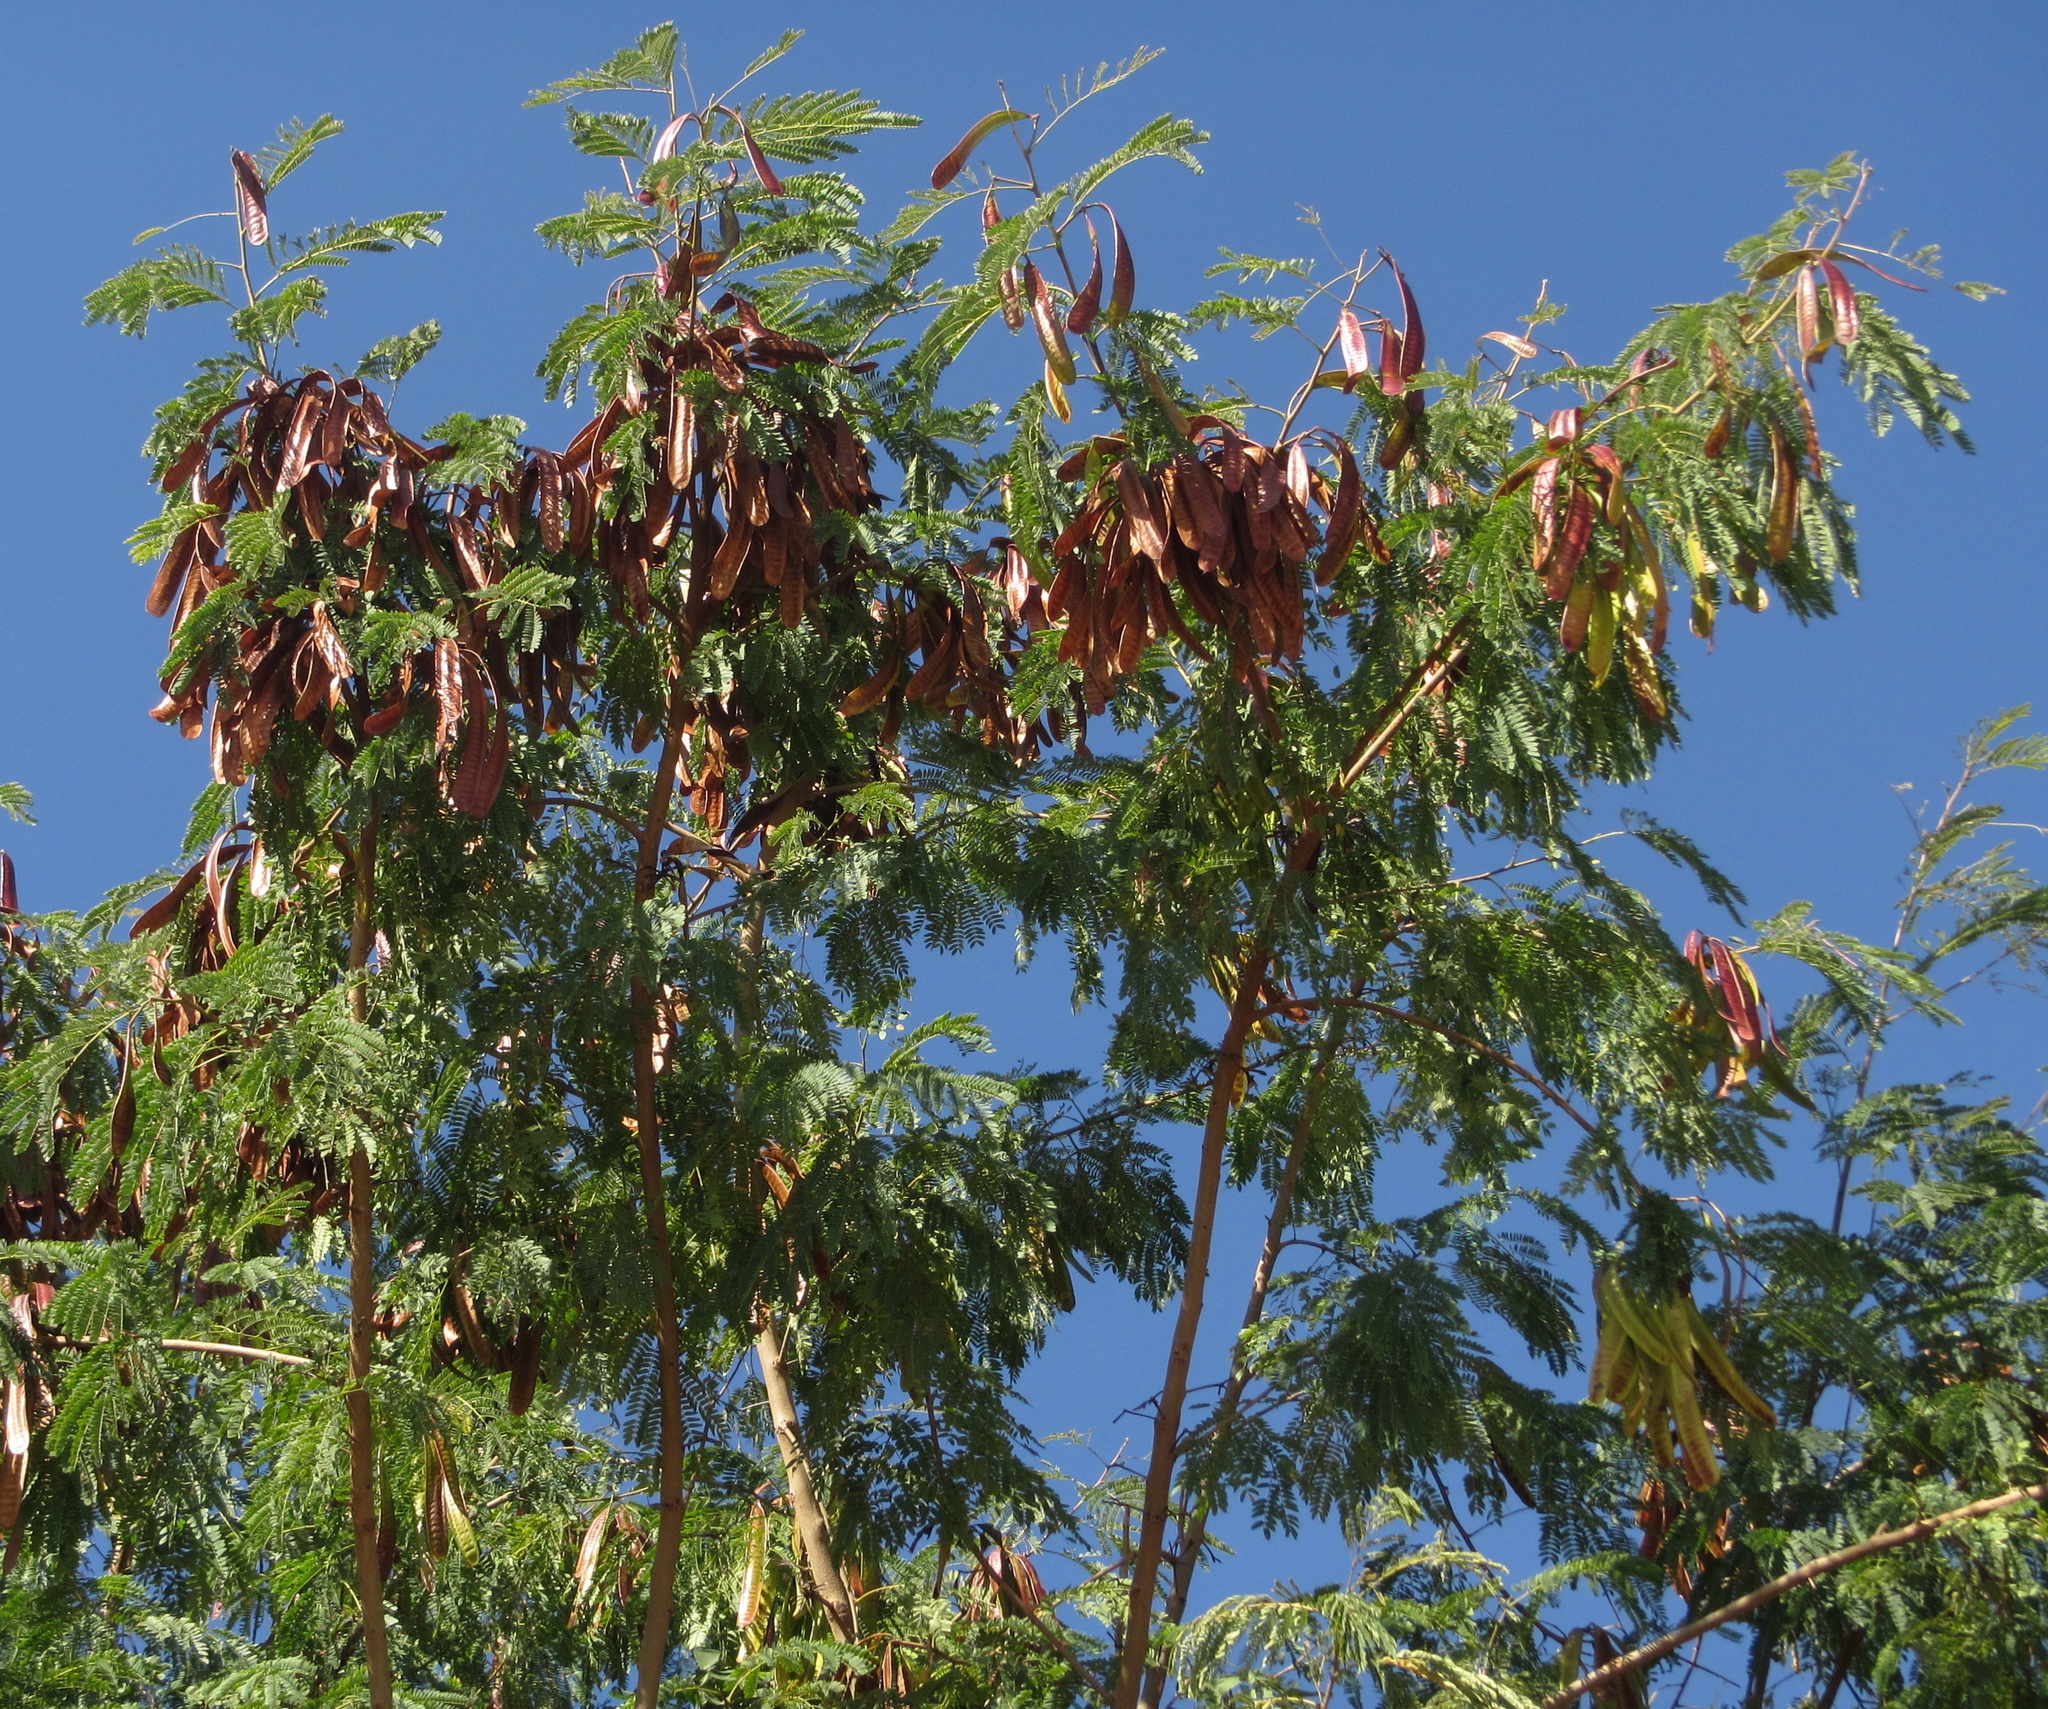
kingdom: Plantae
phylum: Tracheophyta
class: Magnoliopsida
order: Fabales
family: Fabaceae
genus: Leucaena
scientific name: Leucaena leucocephala
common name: White leadtree
